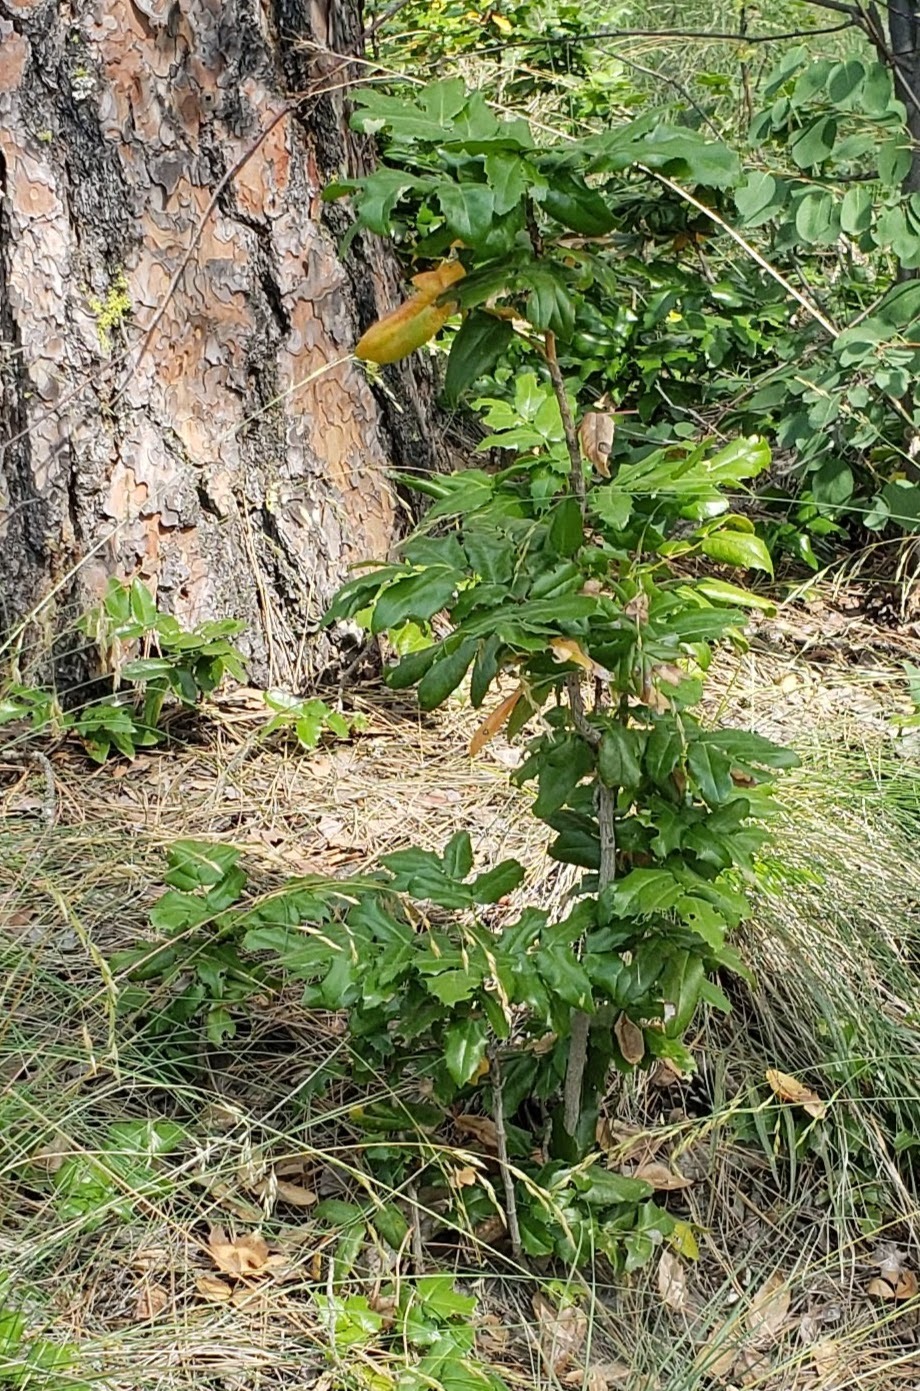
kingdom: Plantae
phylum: Tracheophyta
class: Magnoliopsida
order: Ranunculales
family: Berberidaceae
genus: Mahonia
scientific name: Mahonia aquifolium
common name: Oregon-grape
